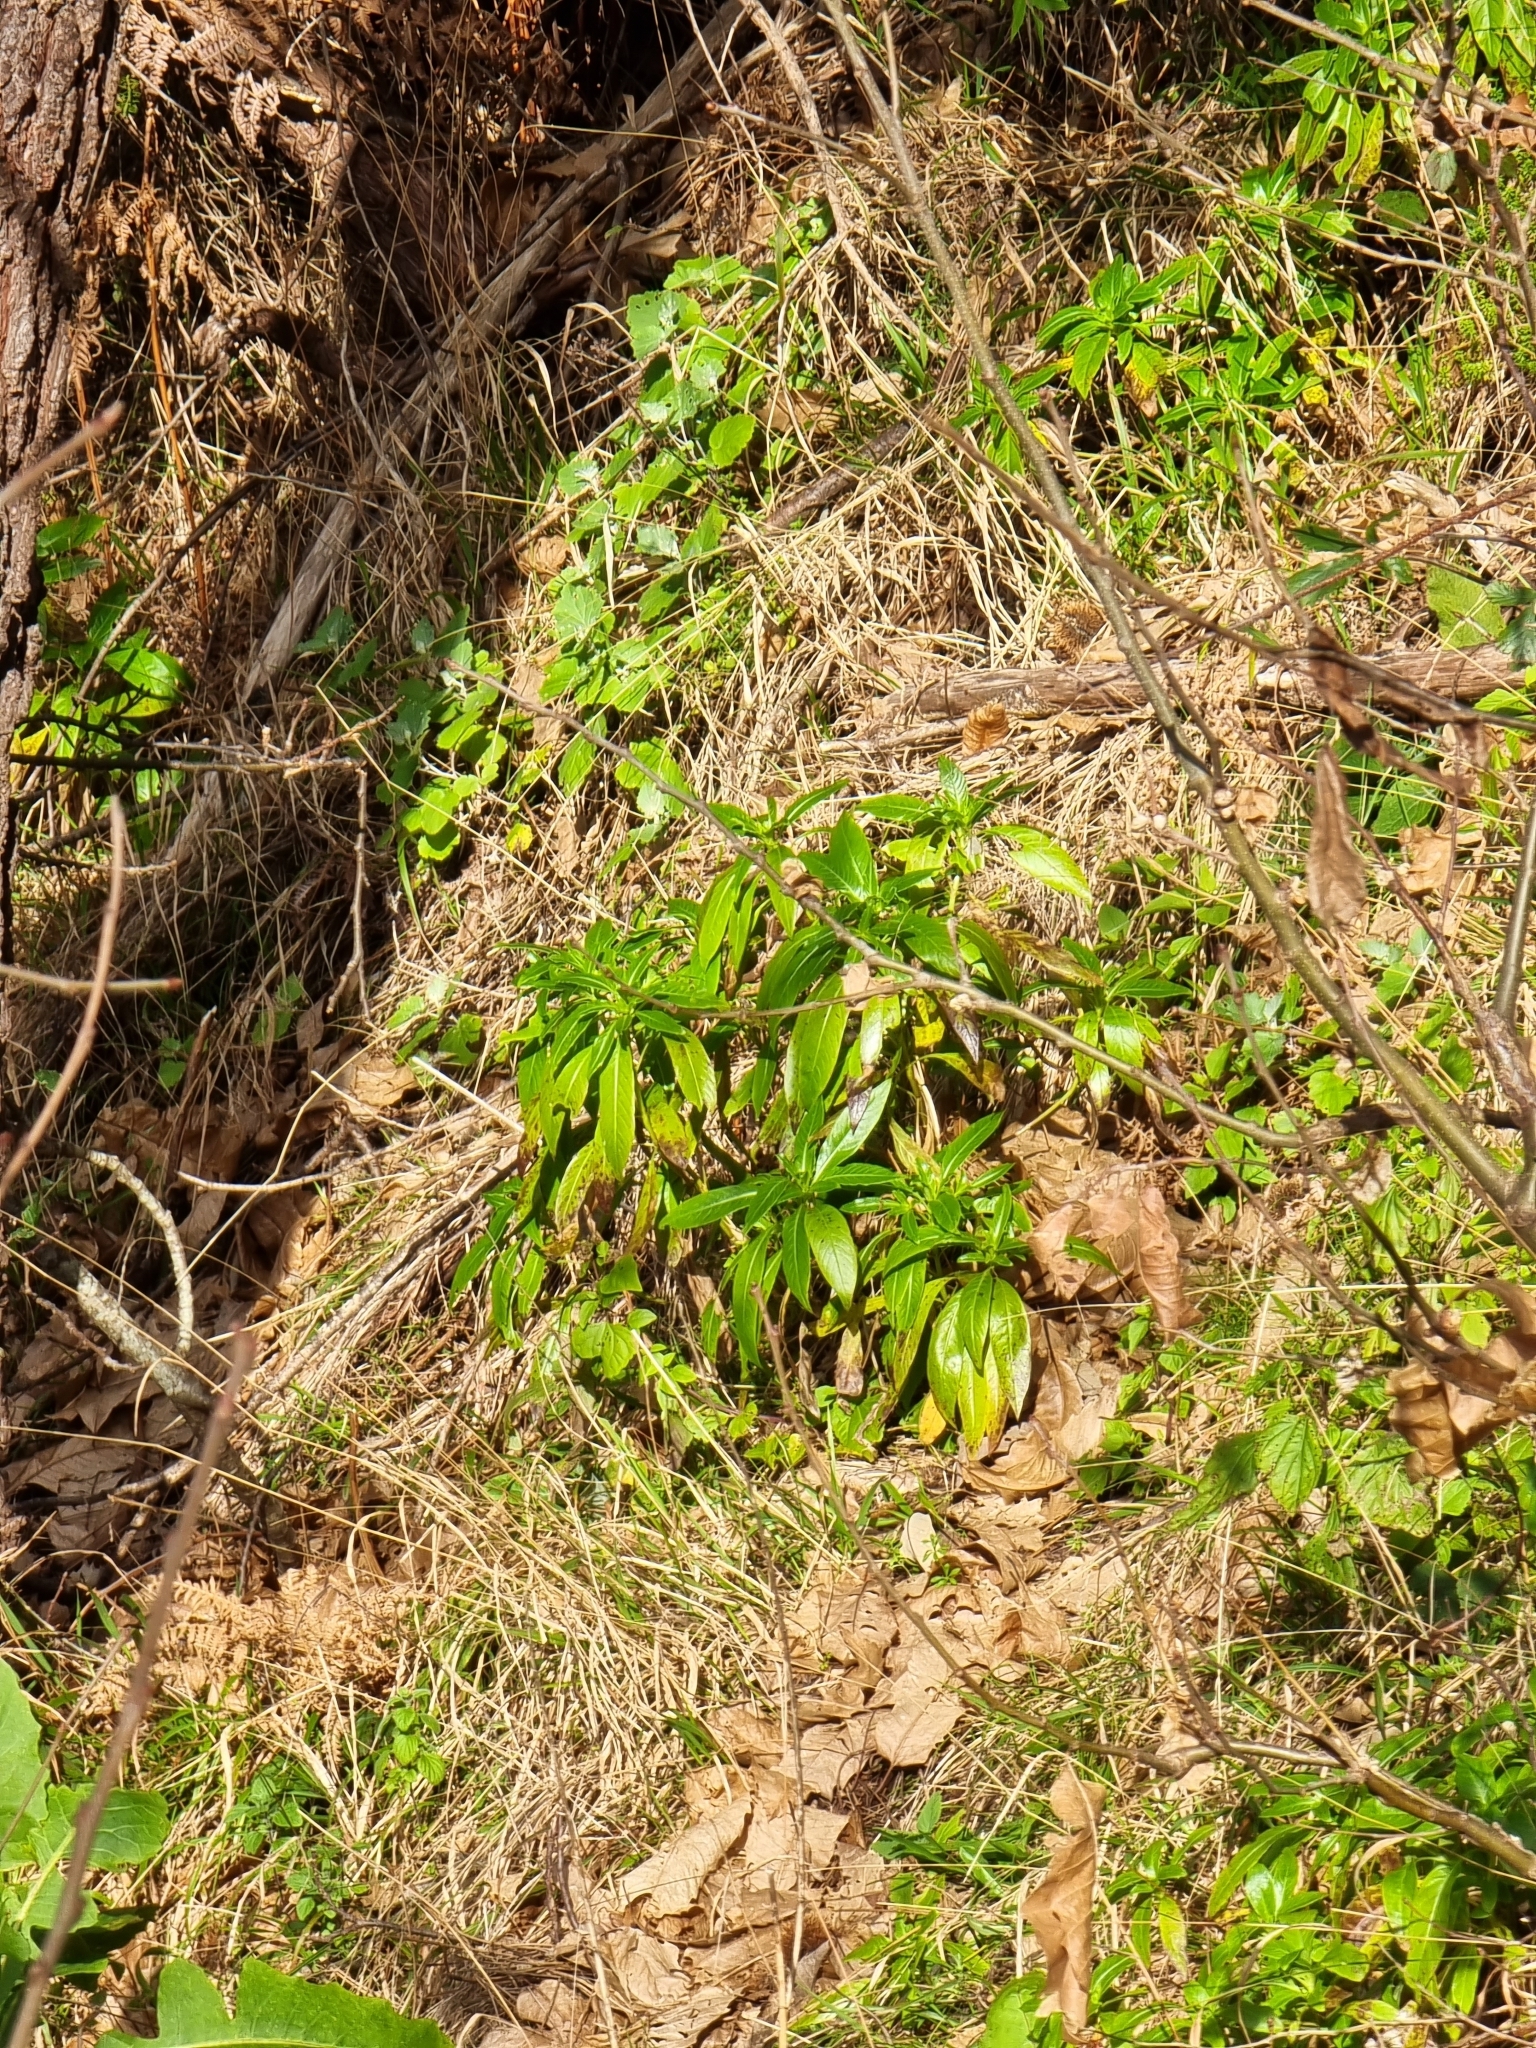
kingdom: Plantae
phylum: Tracheophyta
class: Magnoliopsida
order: Gentianales
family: Rubiaceae
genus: Phyllis
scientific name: Phyllis nobla
